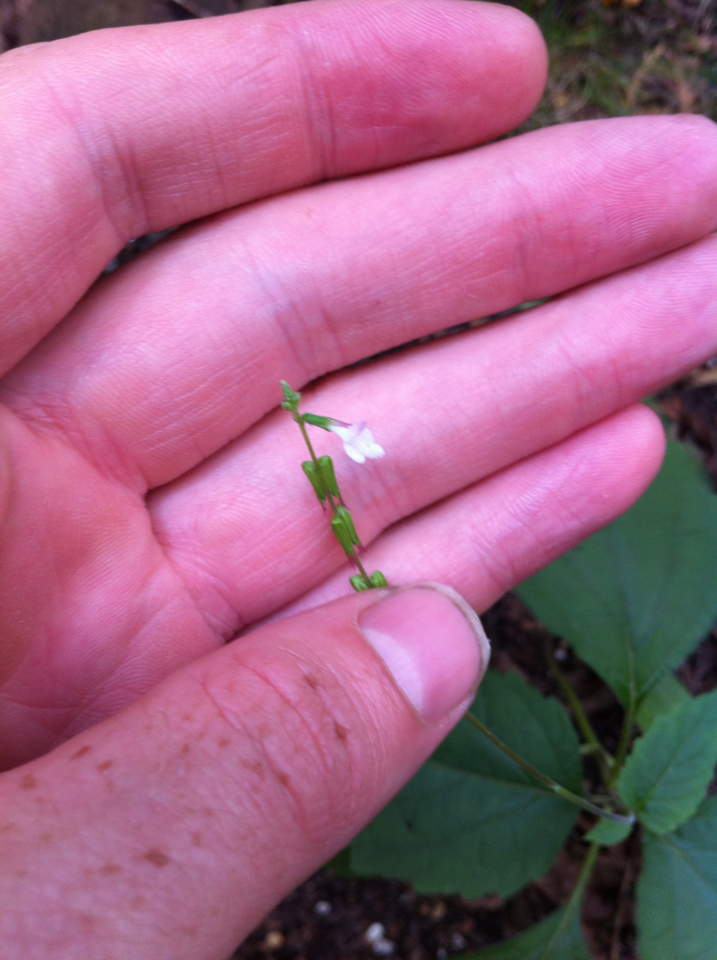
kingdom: Plantae
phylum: Tracheophyta
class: Magnoliopsida
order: Lamiales
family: Phrymaceae
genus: Phryma
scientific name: Phryma leptostachya
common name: American lopseed
